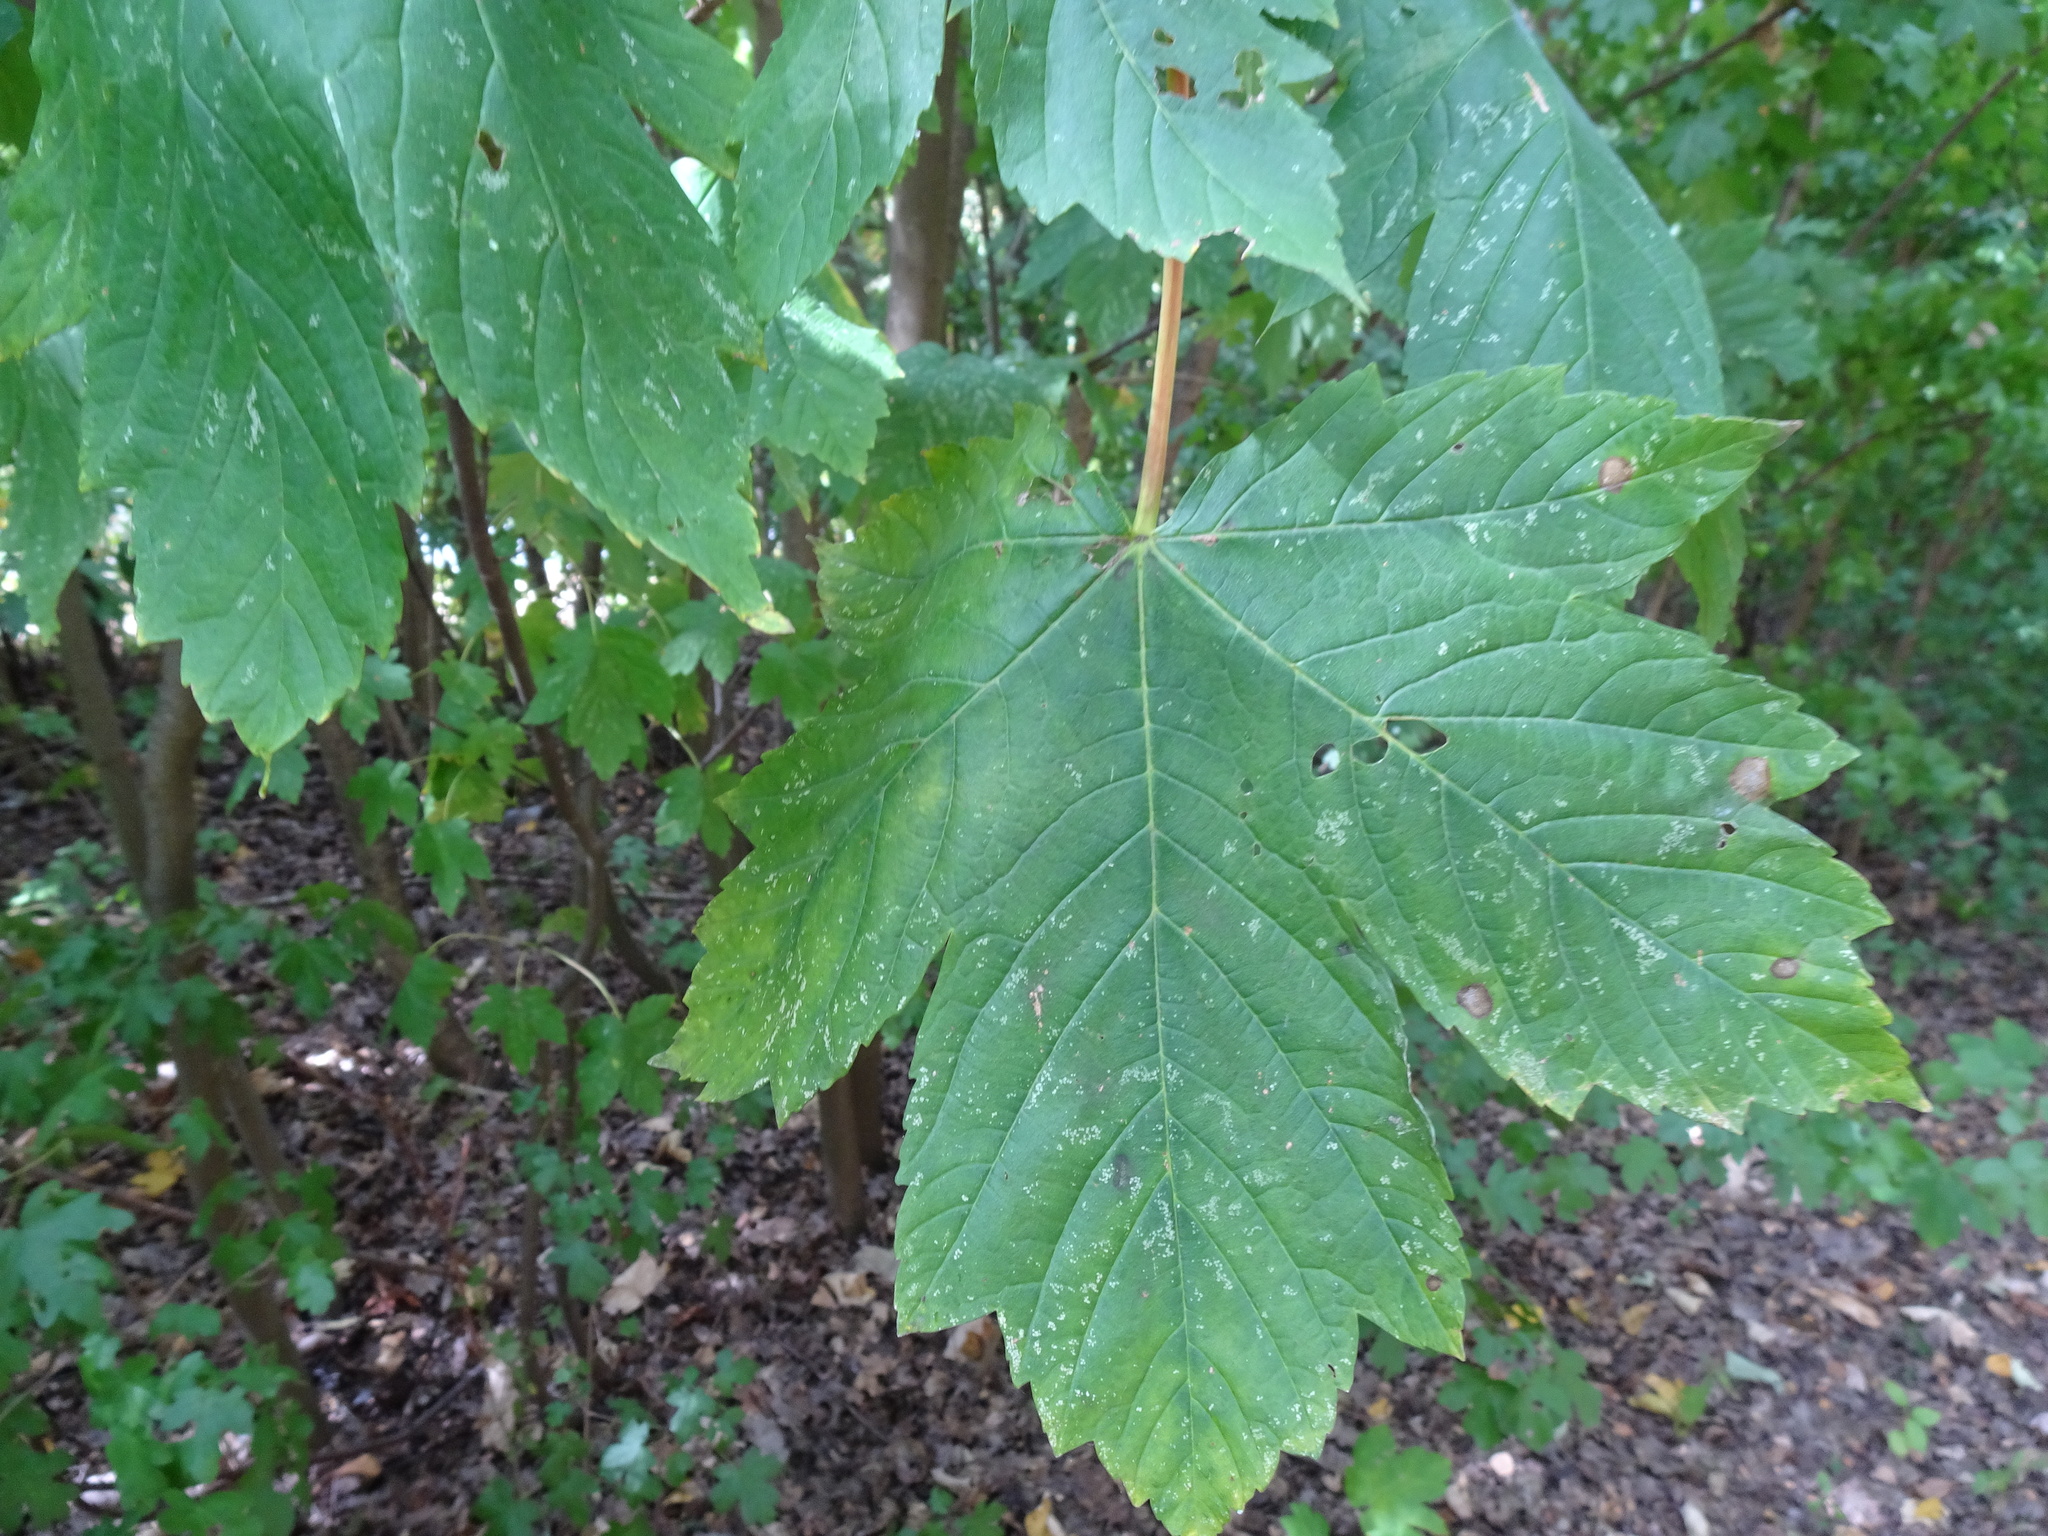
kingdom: Plantae
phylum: Tracheophyta
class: Magnoliopsida
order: Sapindales
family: Sapindaceae
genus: Acer
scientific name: Acer pseudoplatanus
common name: Sycamore
